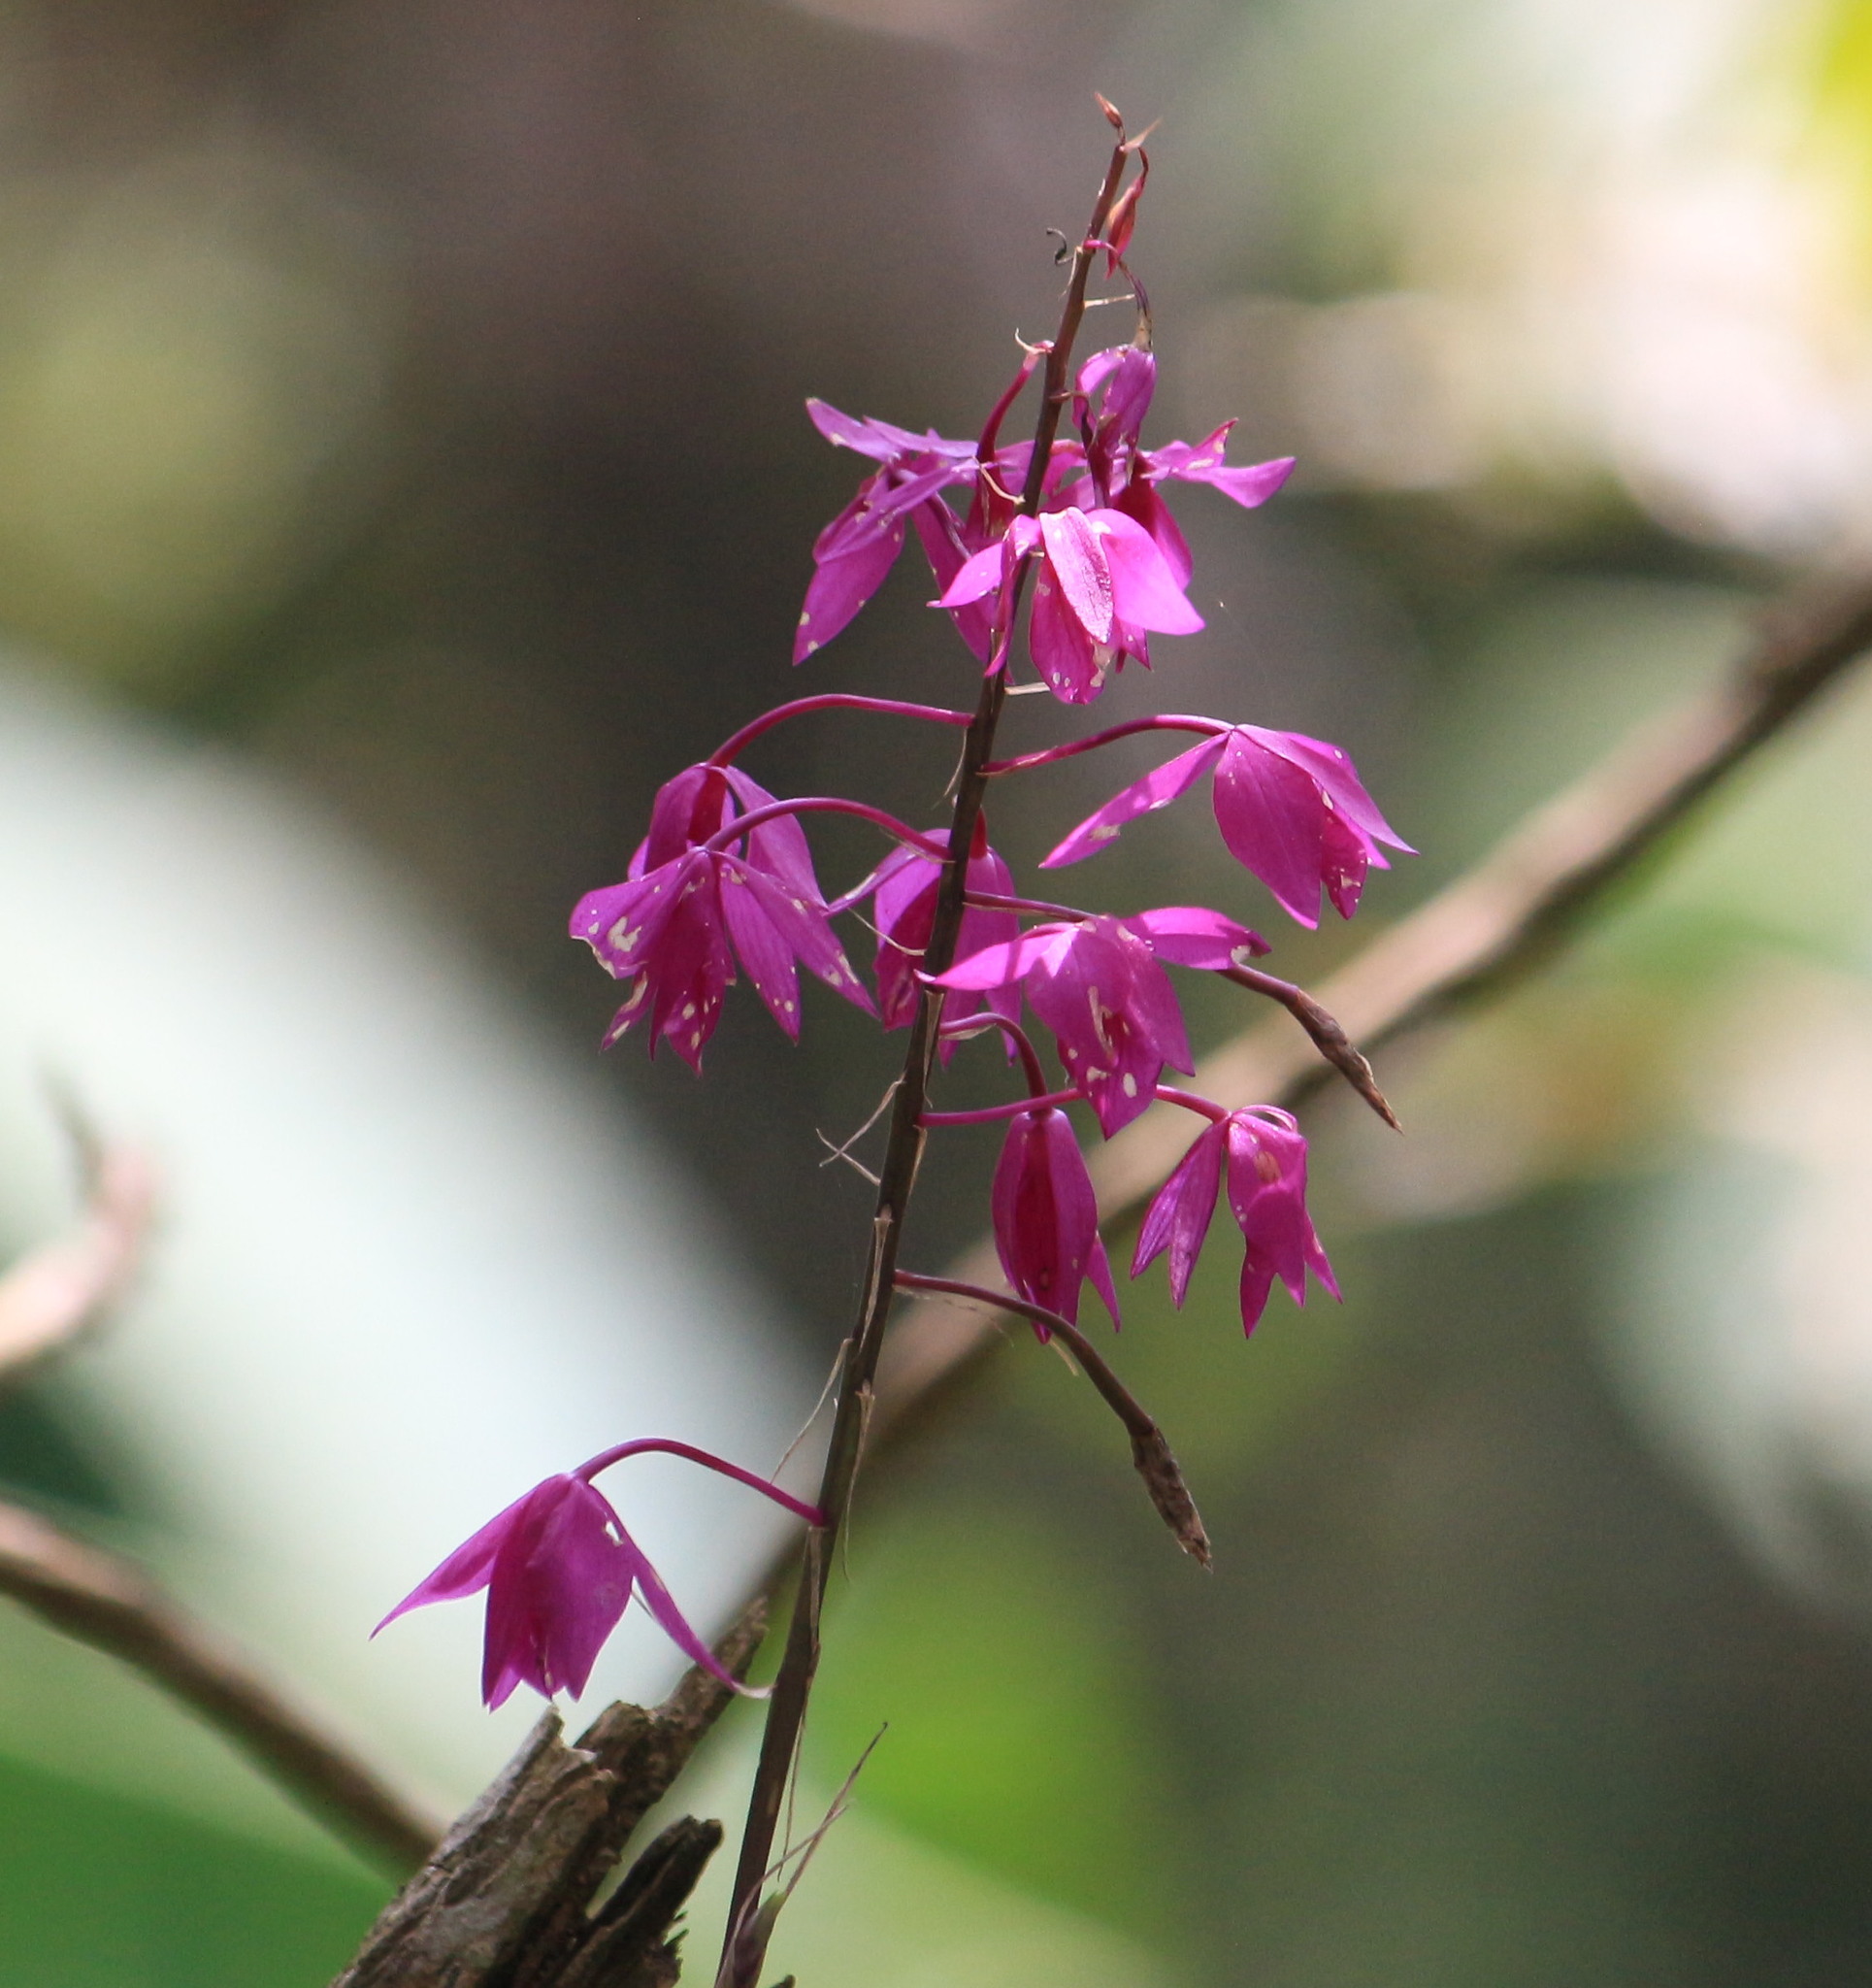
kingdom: Plantae
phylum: Tracheophyta
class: Liliopsida
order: Asparagales
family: Orchidaceae
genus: Barkeria
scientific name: Barkeria skinneri
